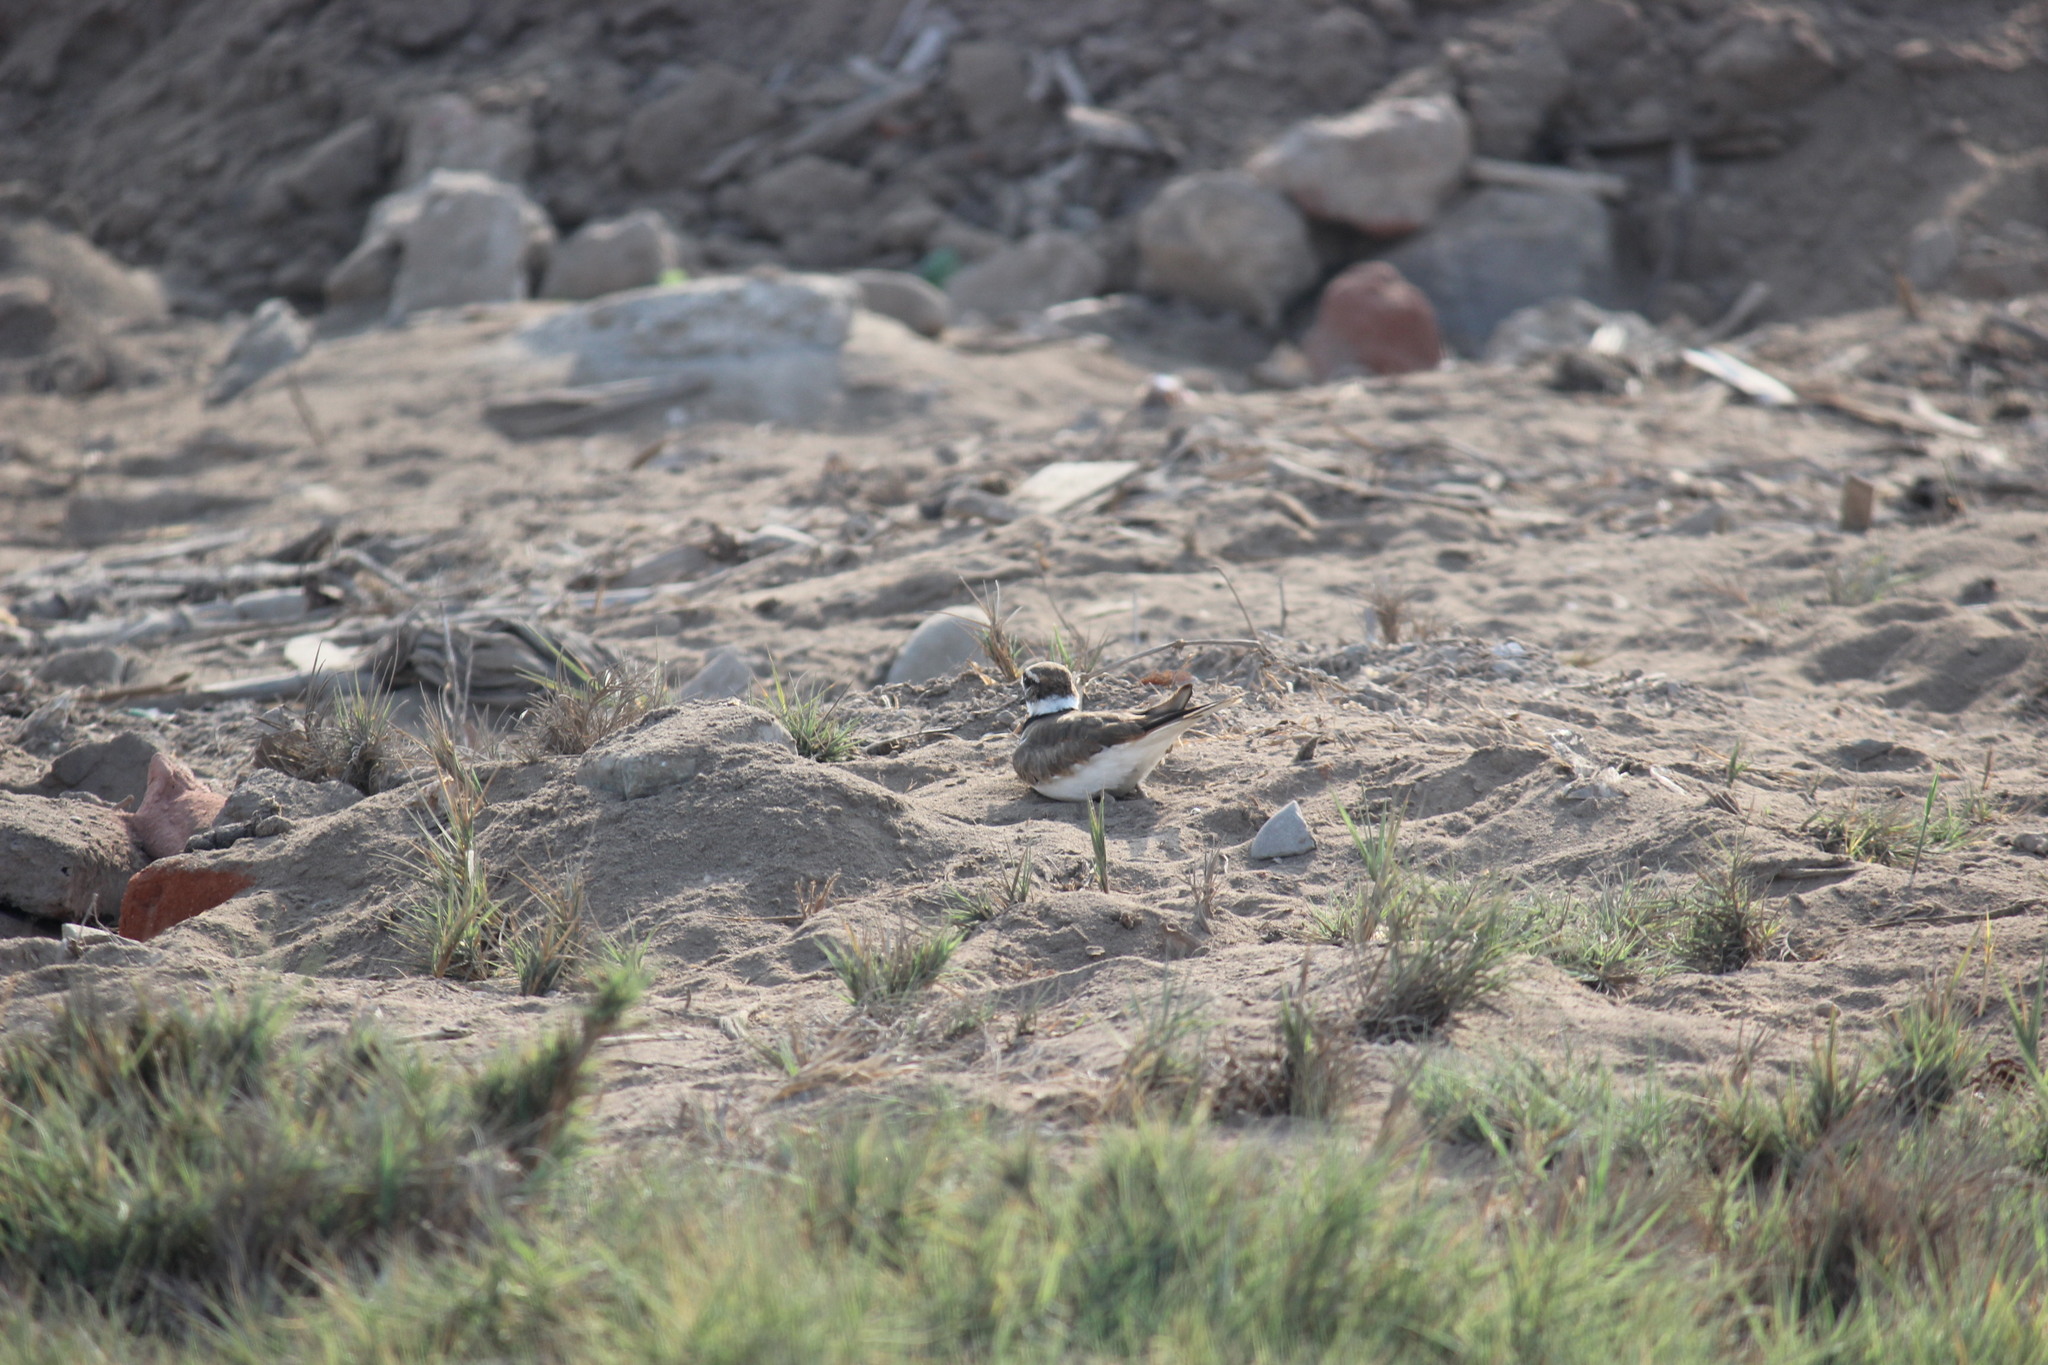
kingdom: Animalia
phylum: Chordata
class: Aves
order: Charadriiformes
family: Charadriidae
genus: Charadrius
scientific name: Charadrius vociferus
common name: Killdeer
